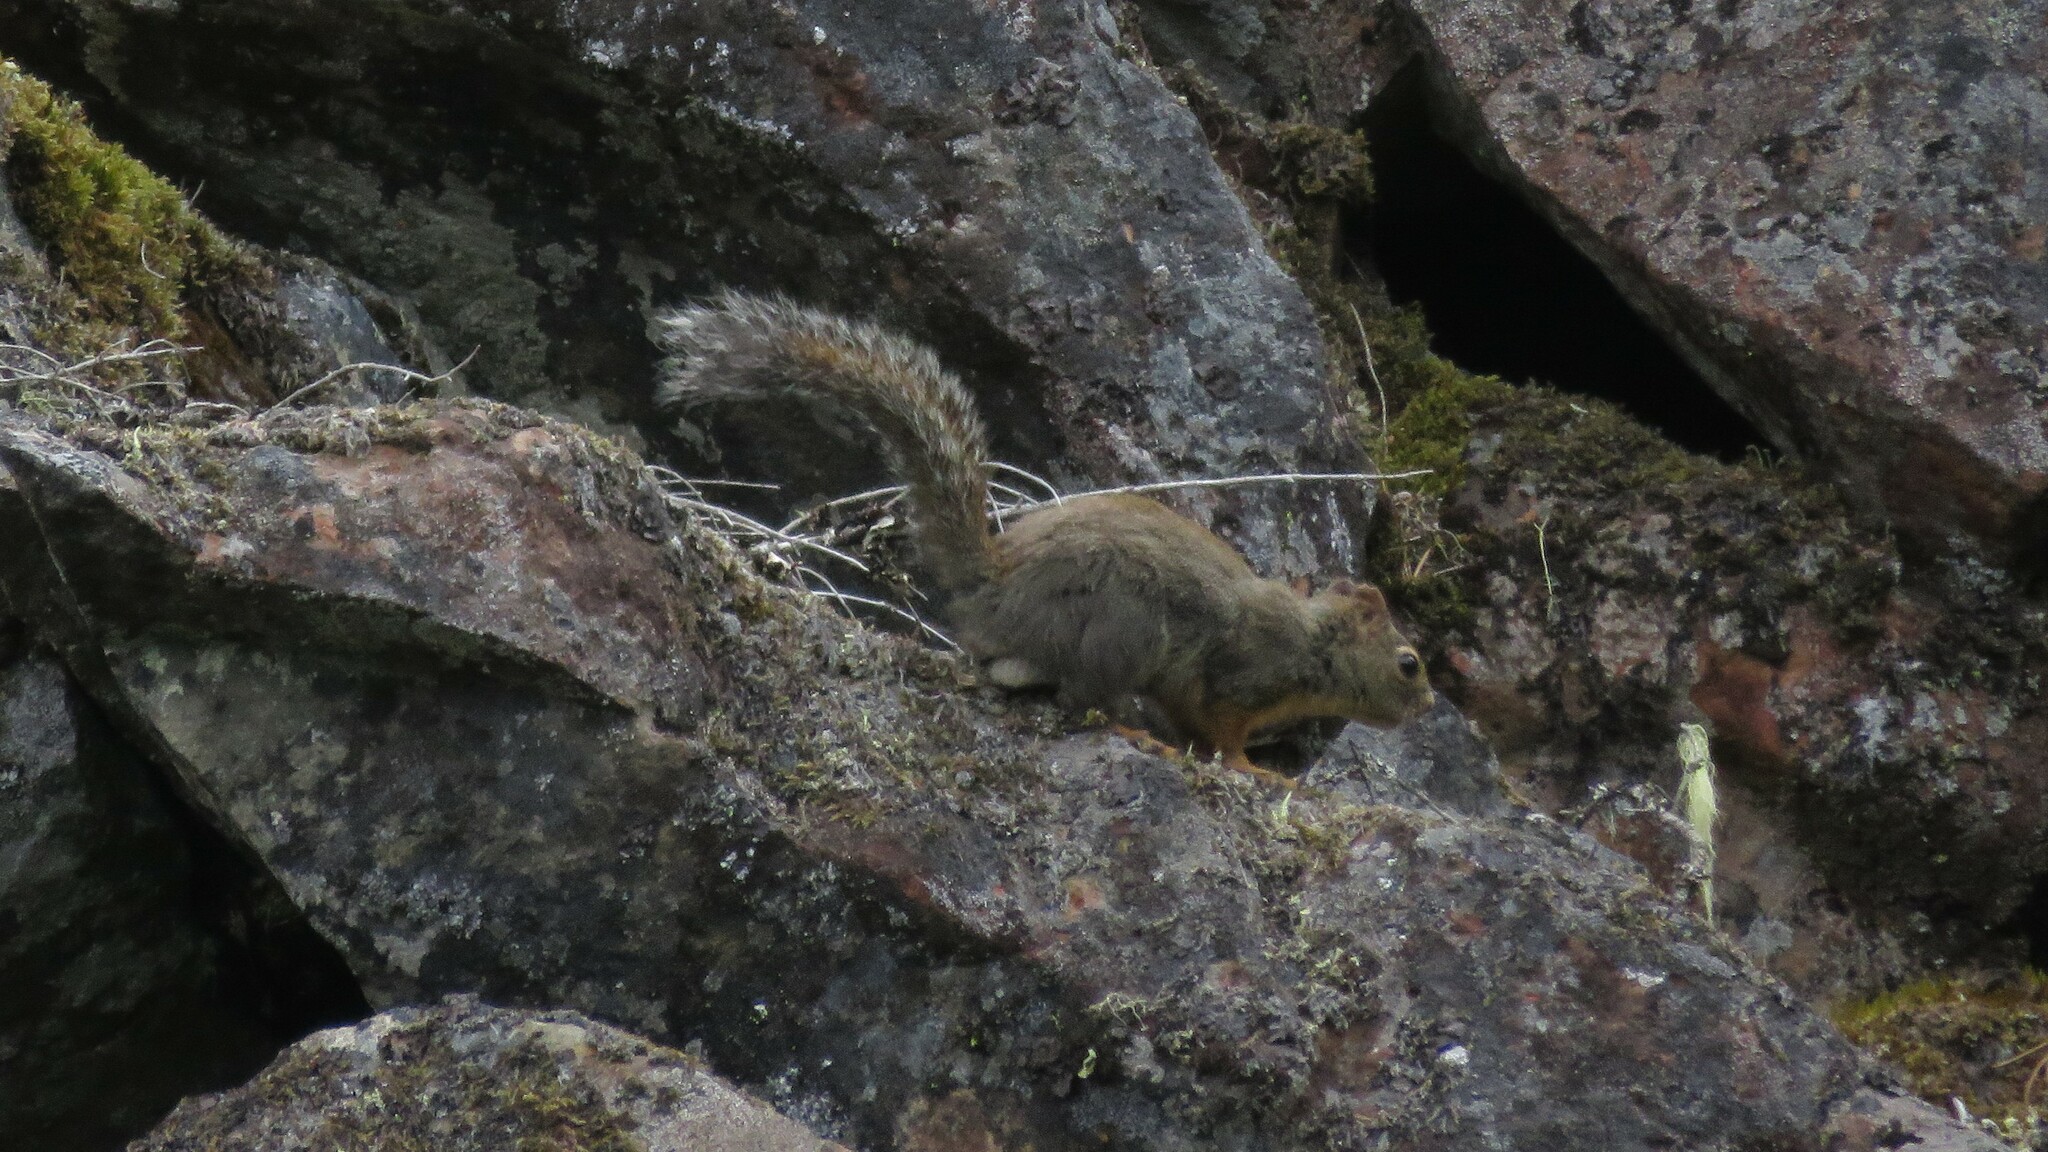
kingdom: Animalia
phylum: Chordata
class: Mammalia
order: Rodentia
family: Sciuridae
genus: Tamiasciurus
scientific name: Tamiasciurus douglasii
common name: Douglas's squirrel
